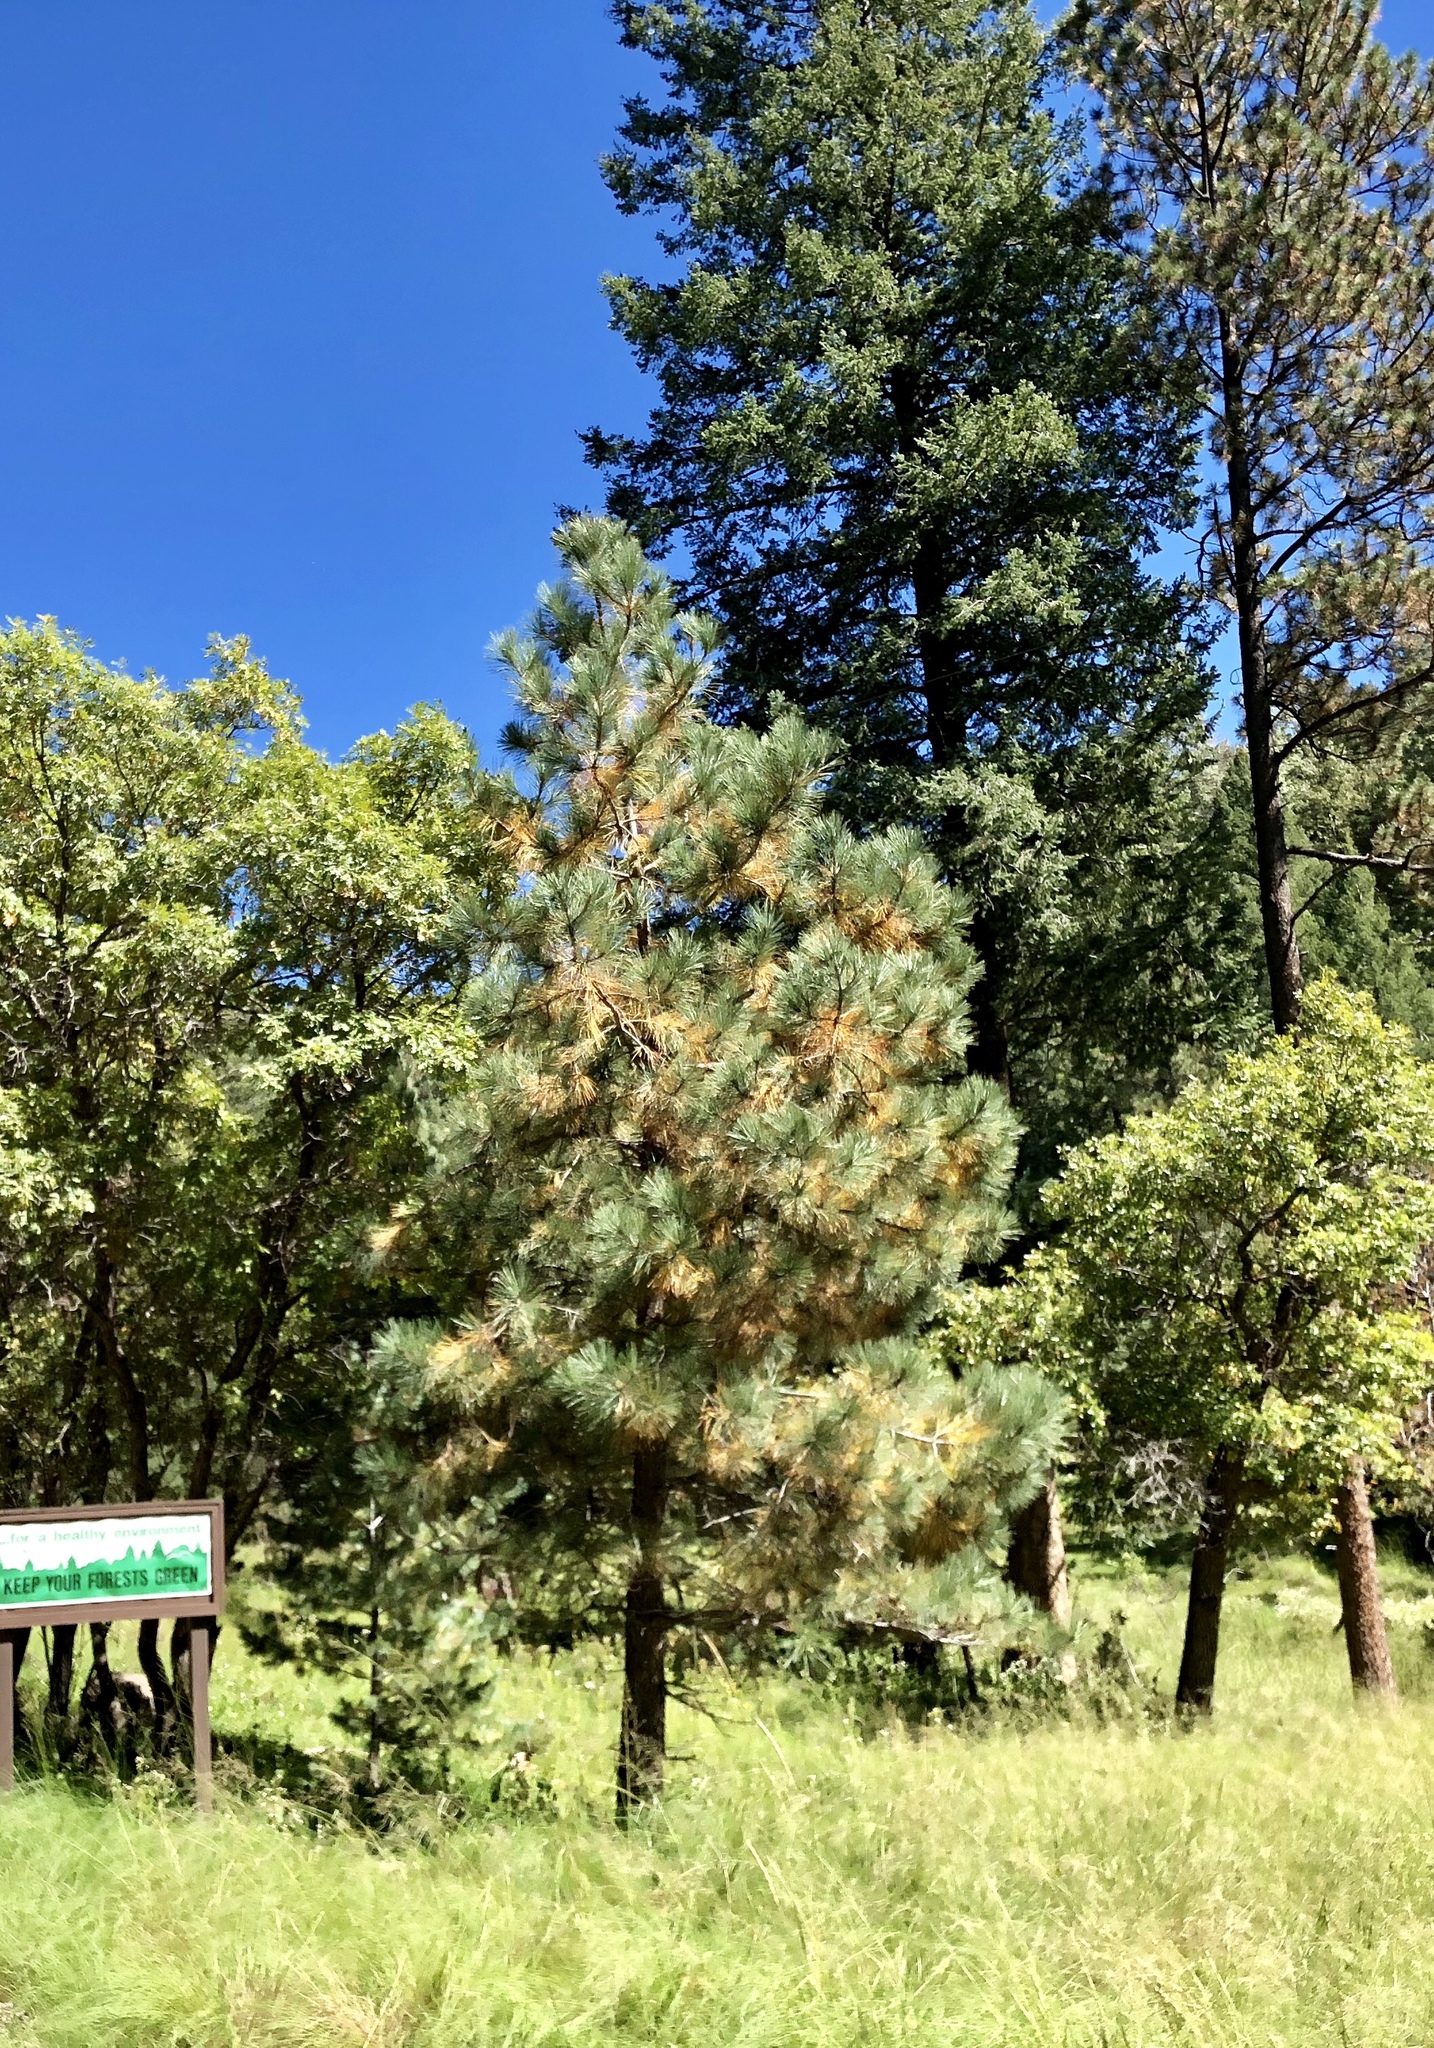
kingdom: Plantae
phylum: Tracheophyta
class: Pinopsida
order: Pinales
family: Pinaceae
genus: Pinus
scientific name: Pinus ponderosa
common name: Western yellow-pine
